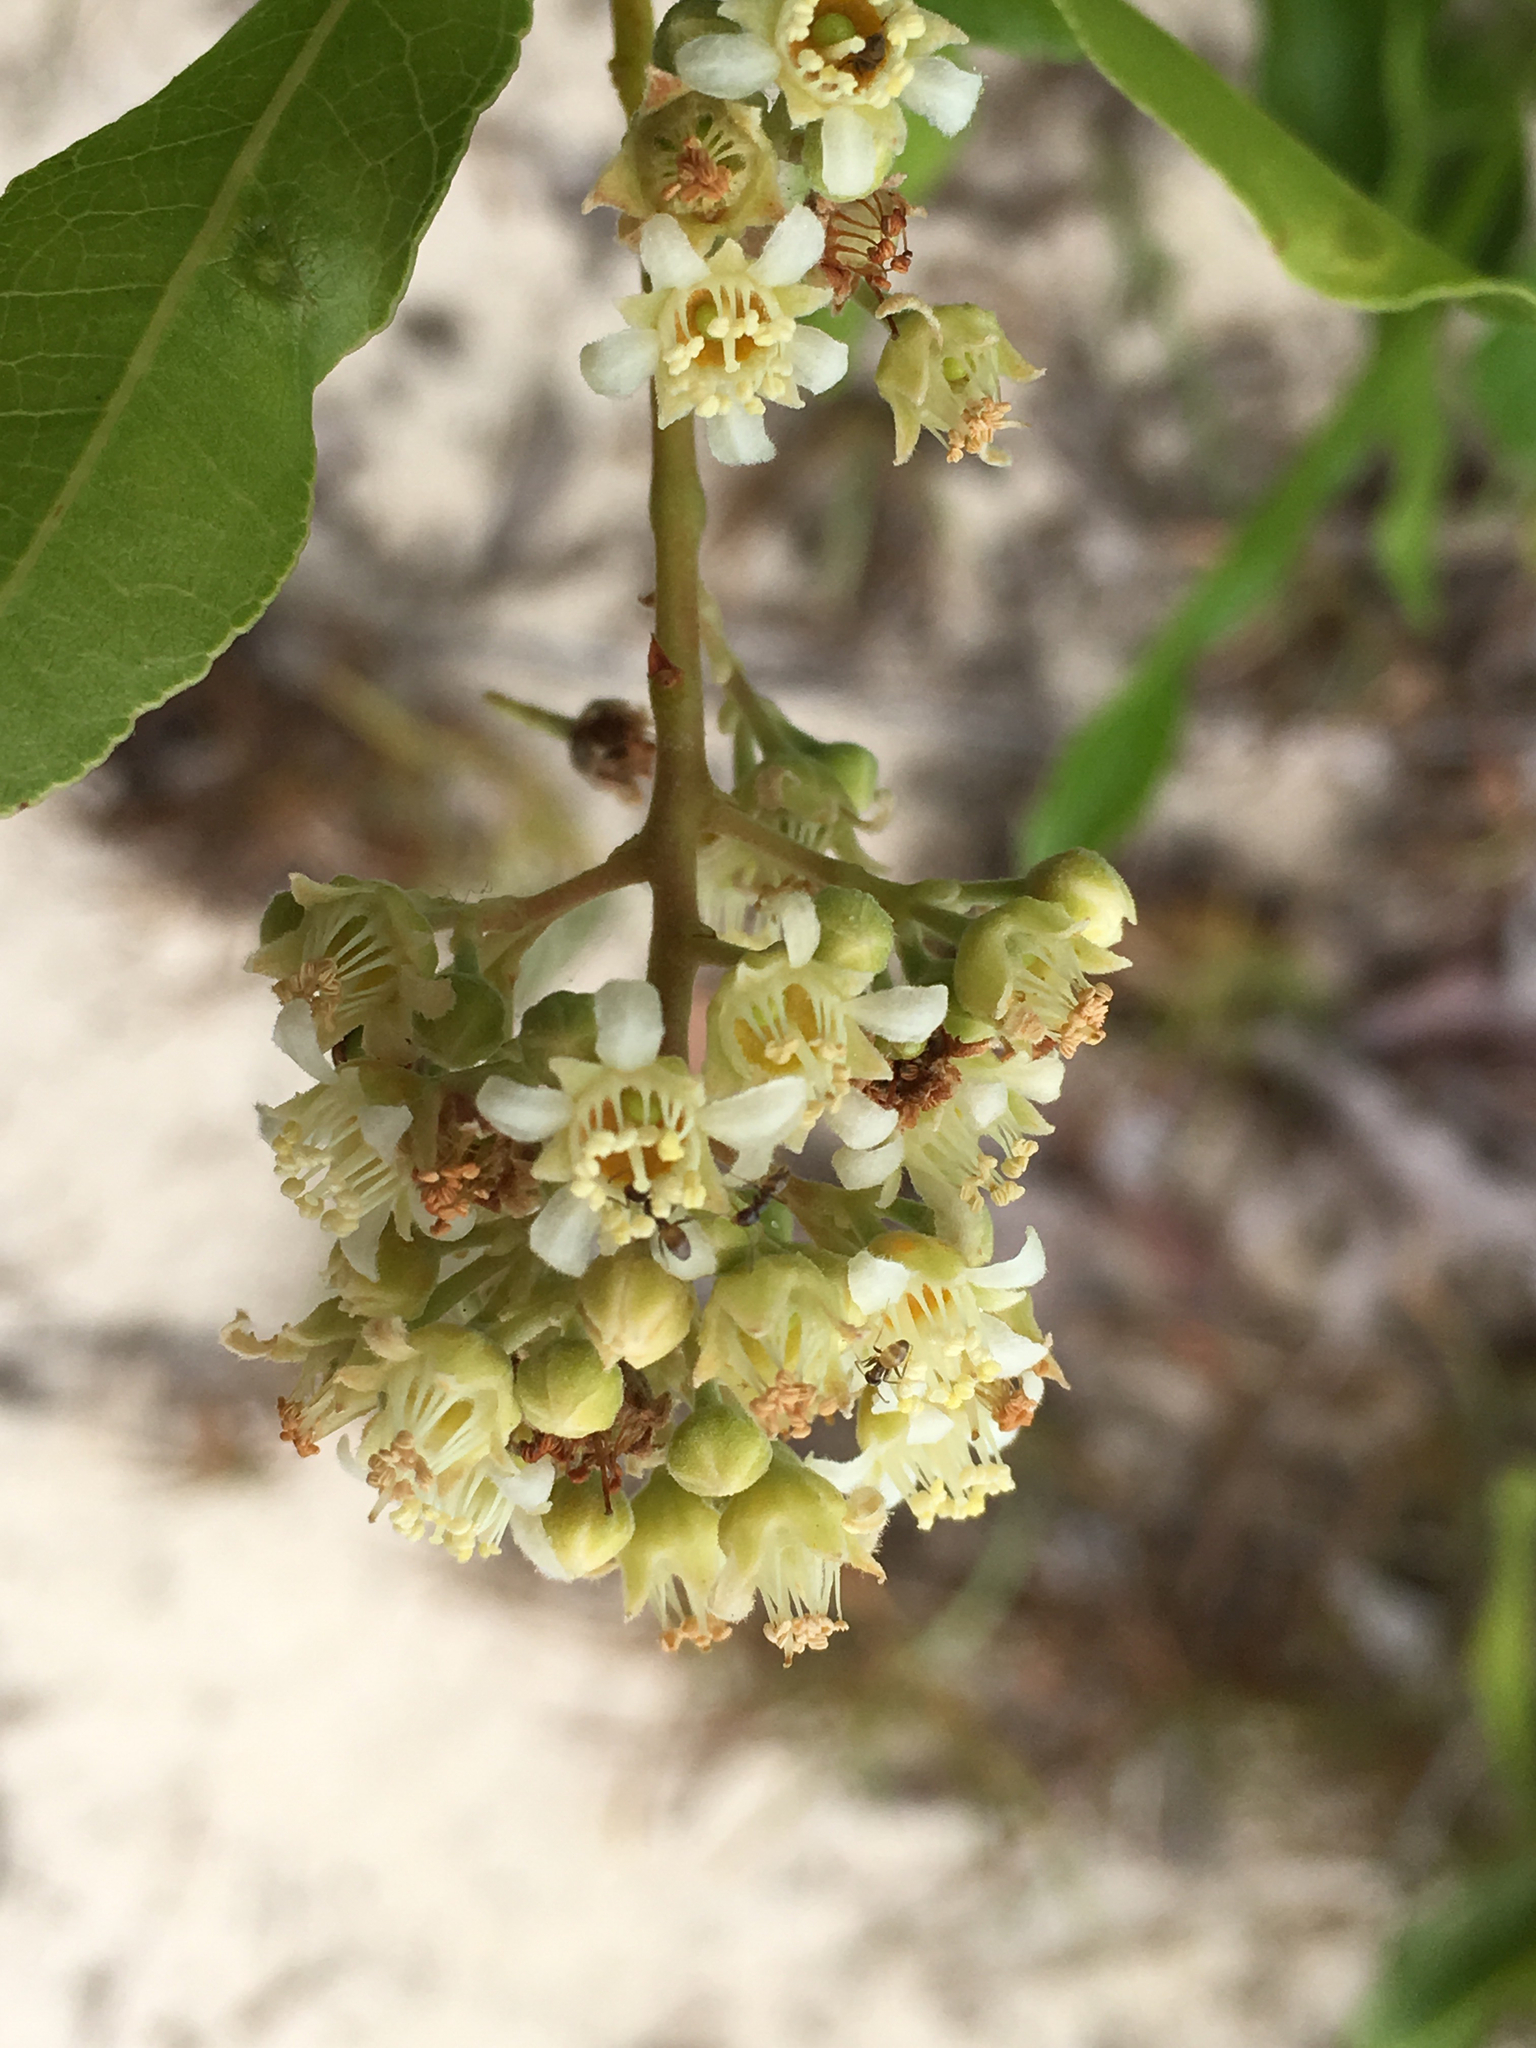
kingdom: Plantae
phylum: Tracheophyta
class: Magnoliopsida
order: Malpighiales
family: Chrysobalanaceae
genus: Geobalanus
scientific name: Geobalanus oblongifolius
